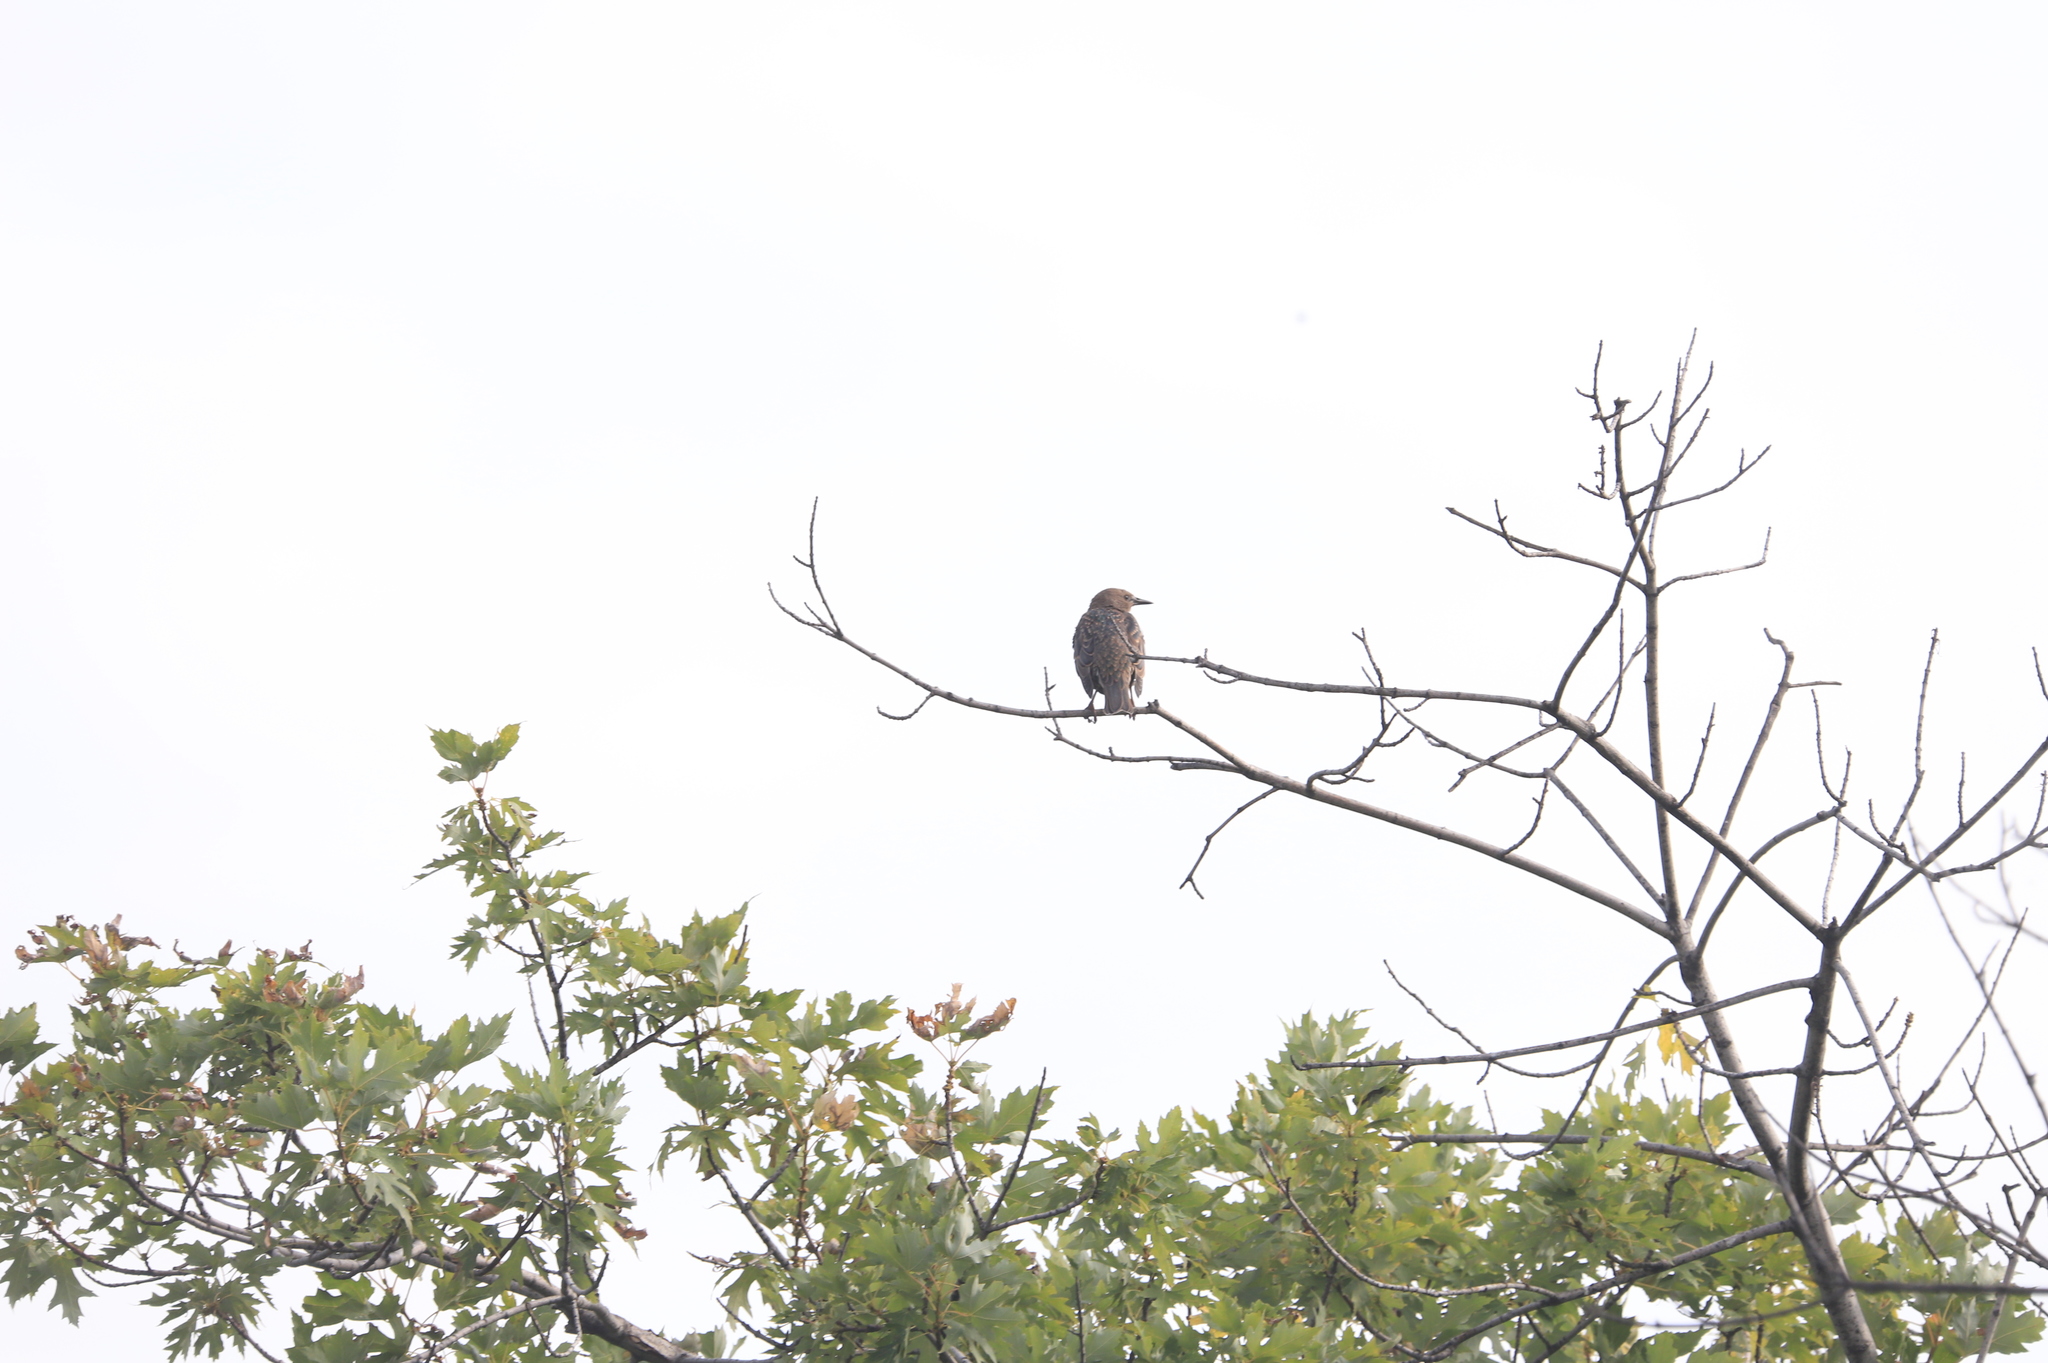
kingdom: Animalia
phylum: Chordata
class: Aves
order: Passeriformes
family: Sturnidae
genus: Sturnus
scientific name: Sturnus vulgaris
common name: Common starling
